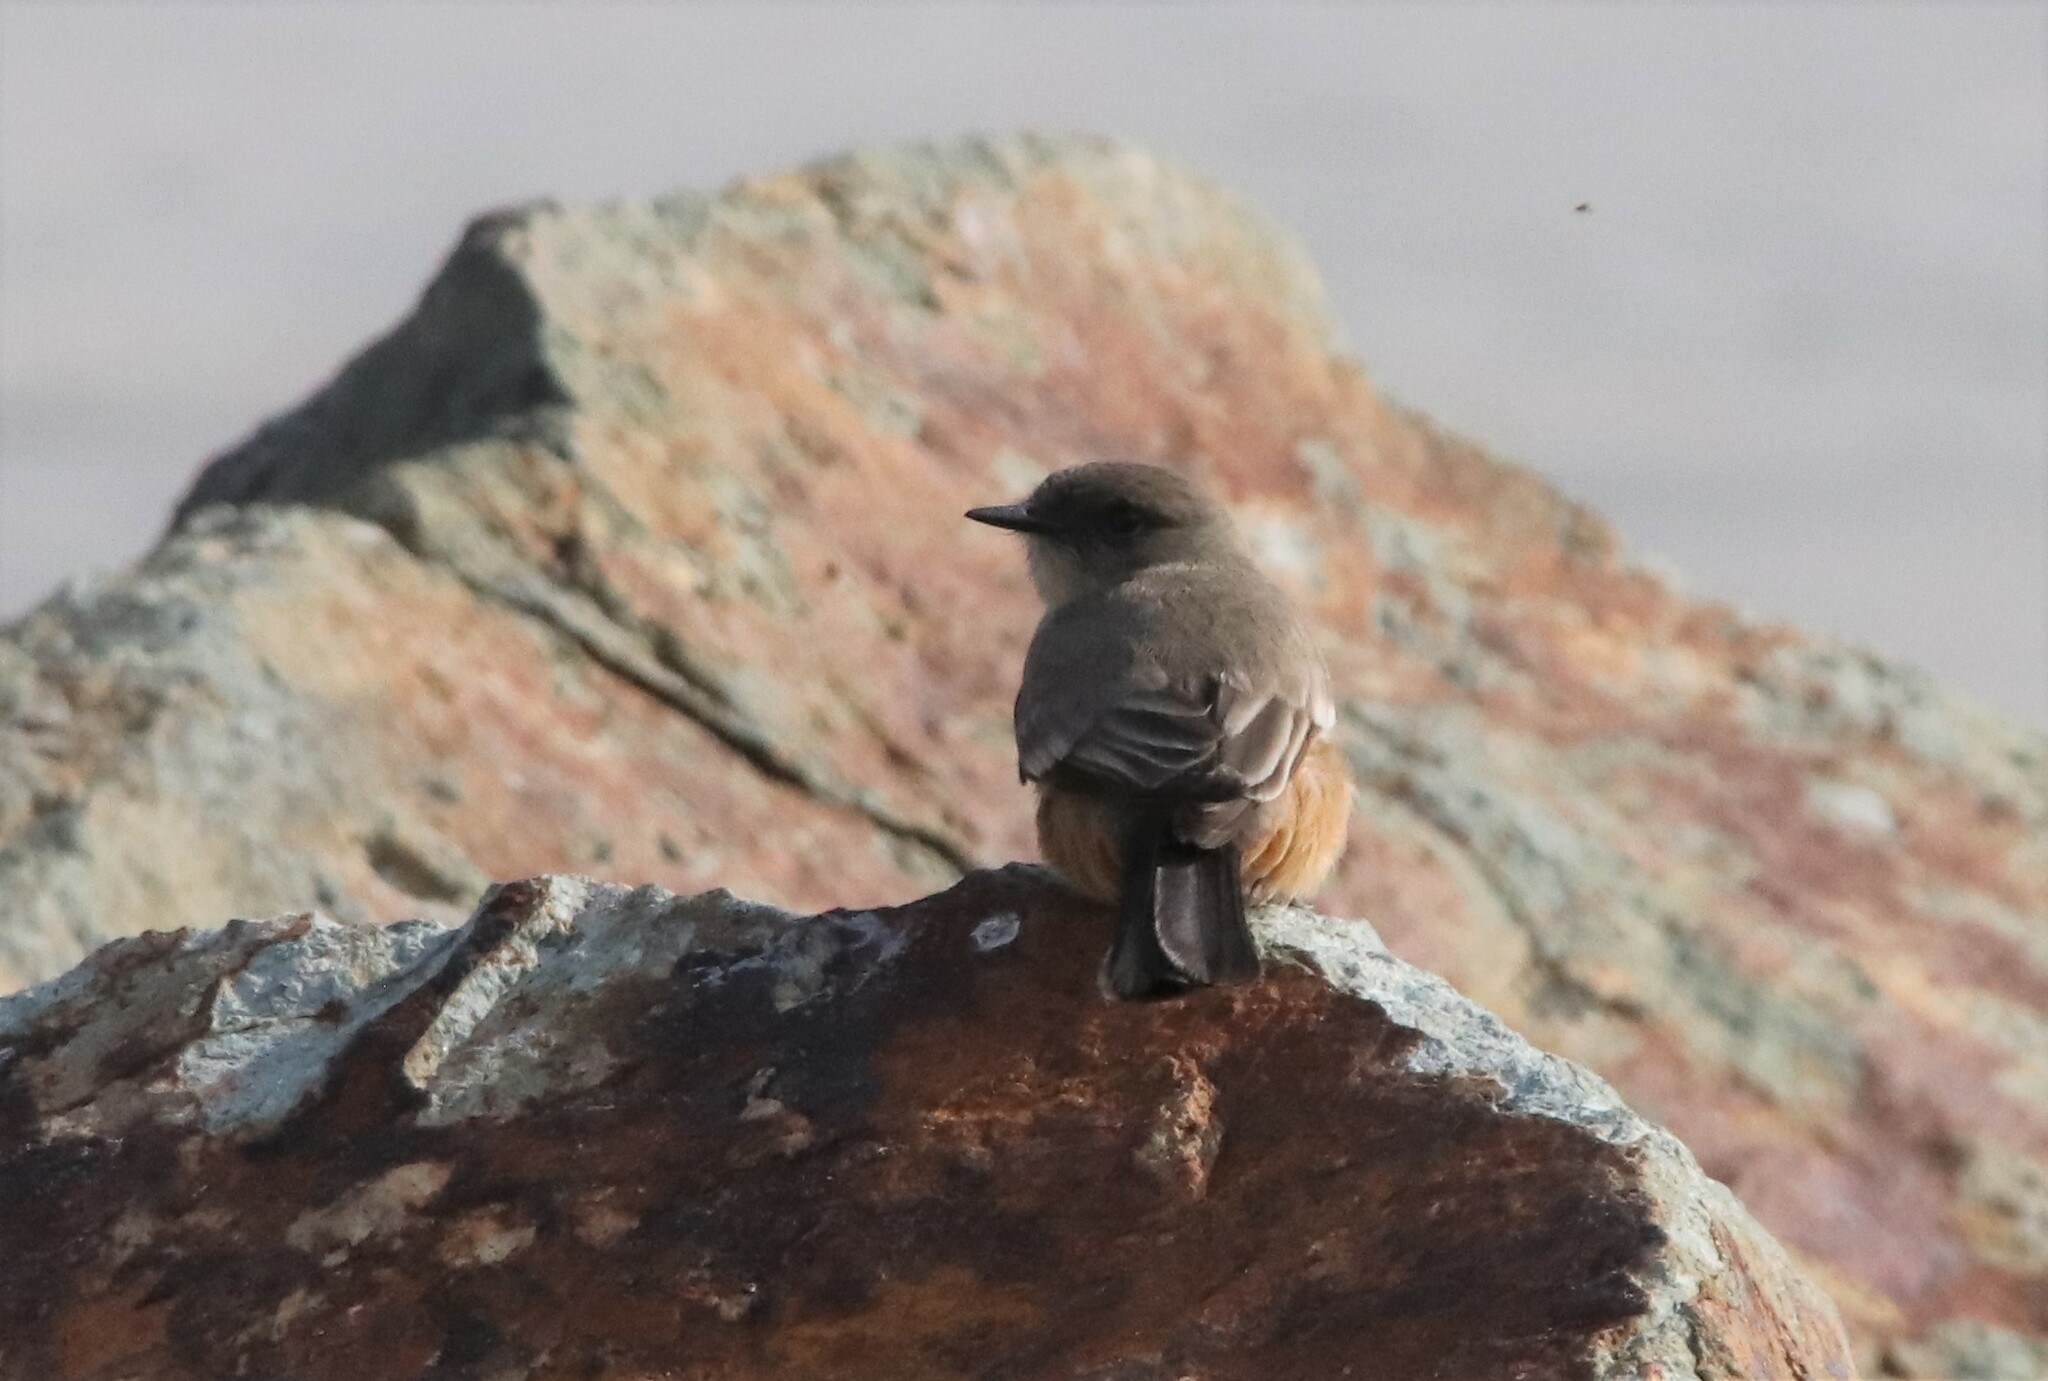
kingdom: Animalia
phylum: Chordata
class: Aves
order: Passeriformes
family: Tyrannidae
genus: Sayornis
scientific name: Sayornis saya
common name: Say's phoebe
